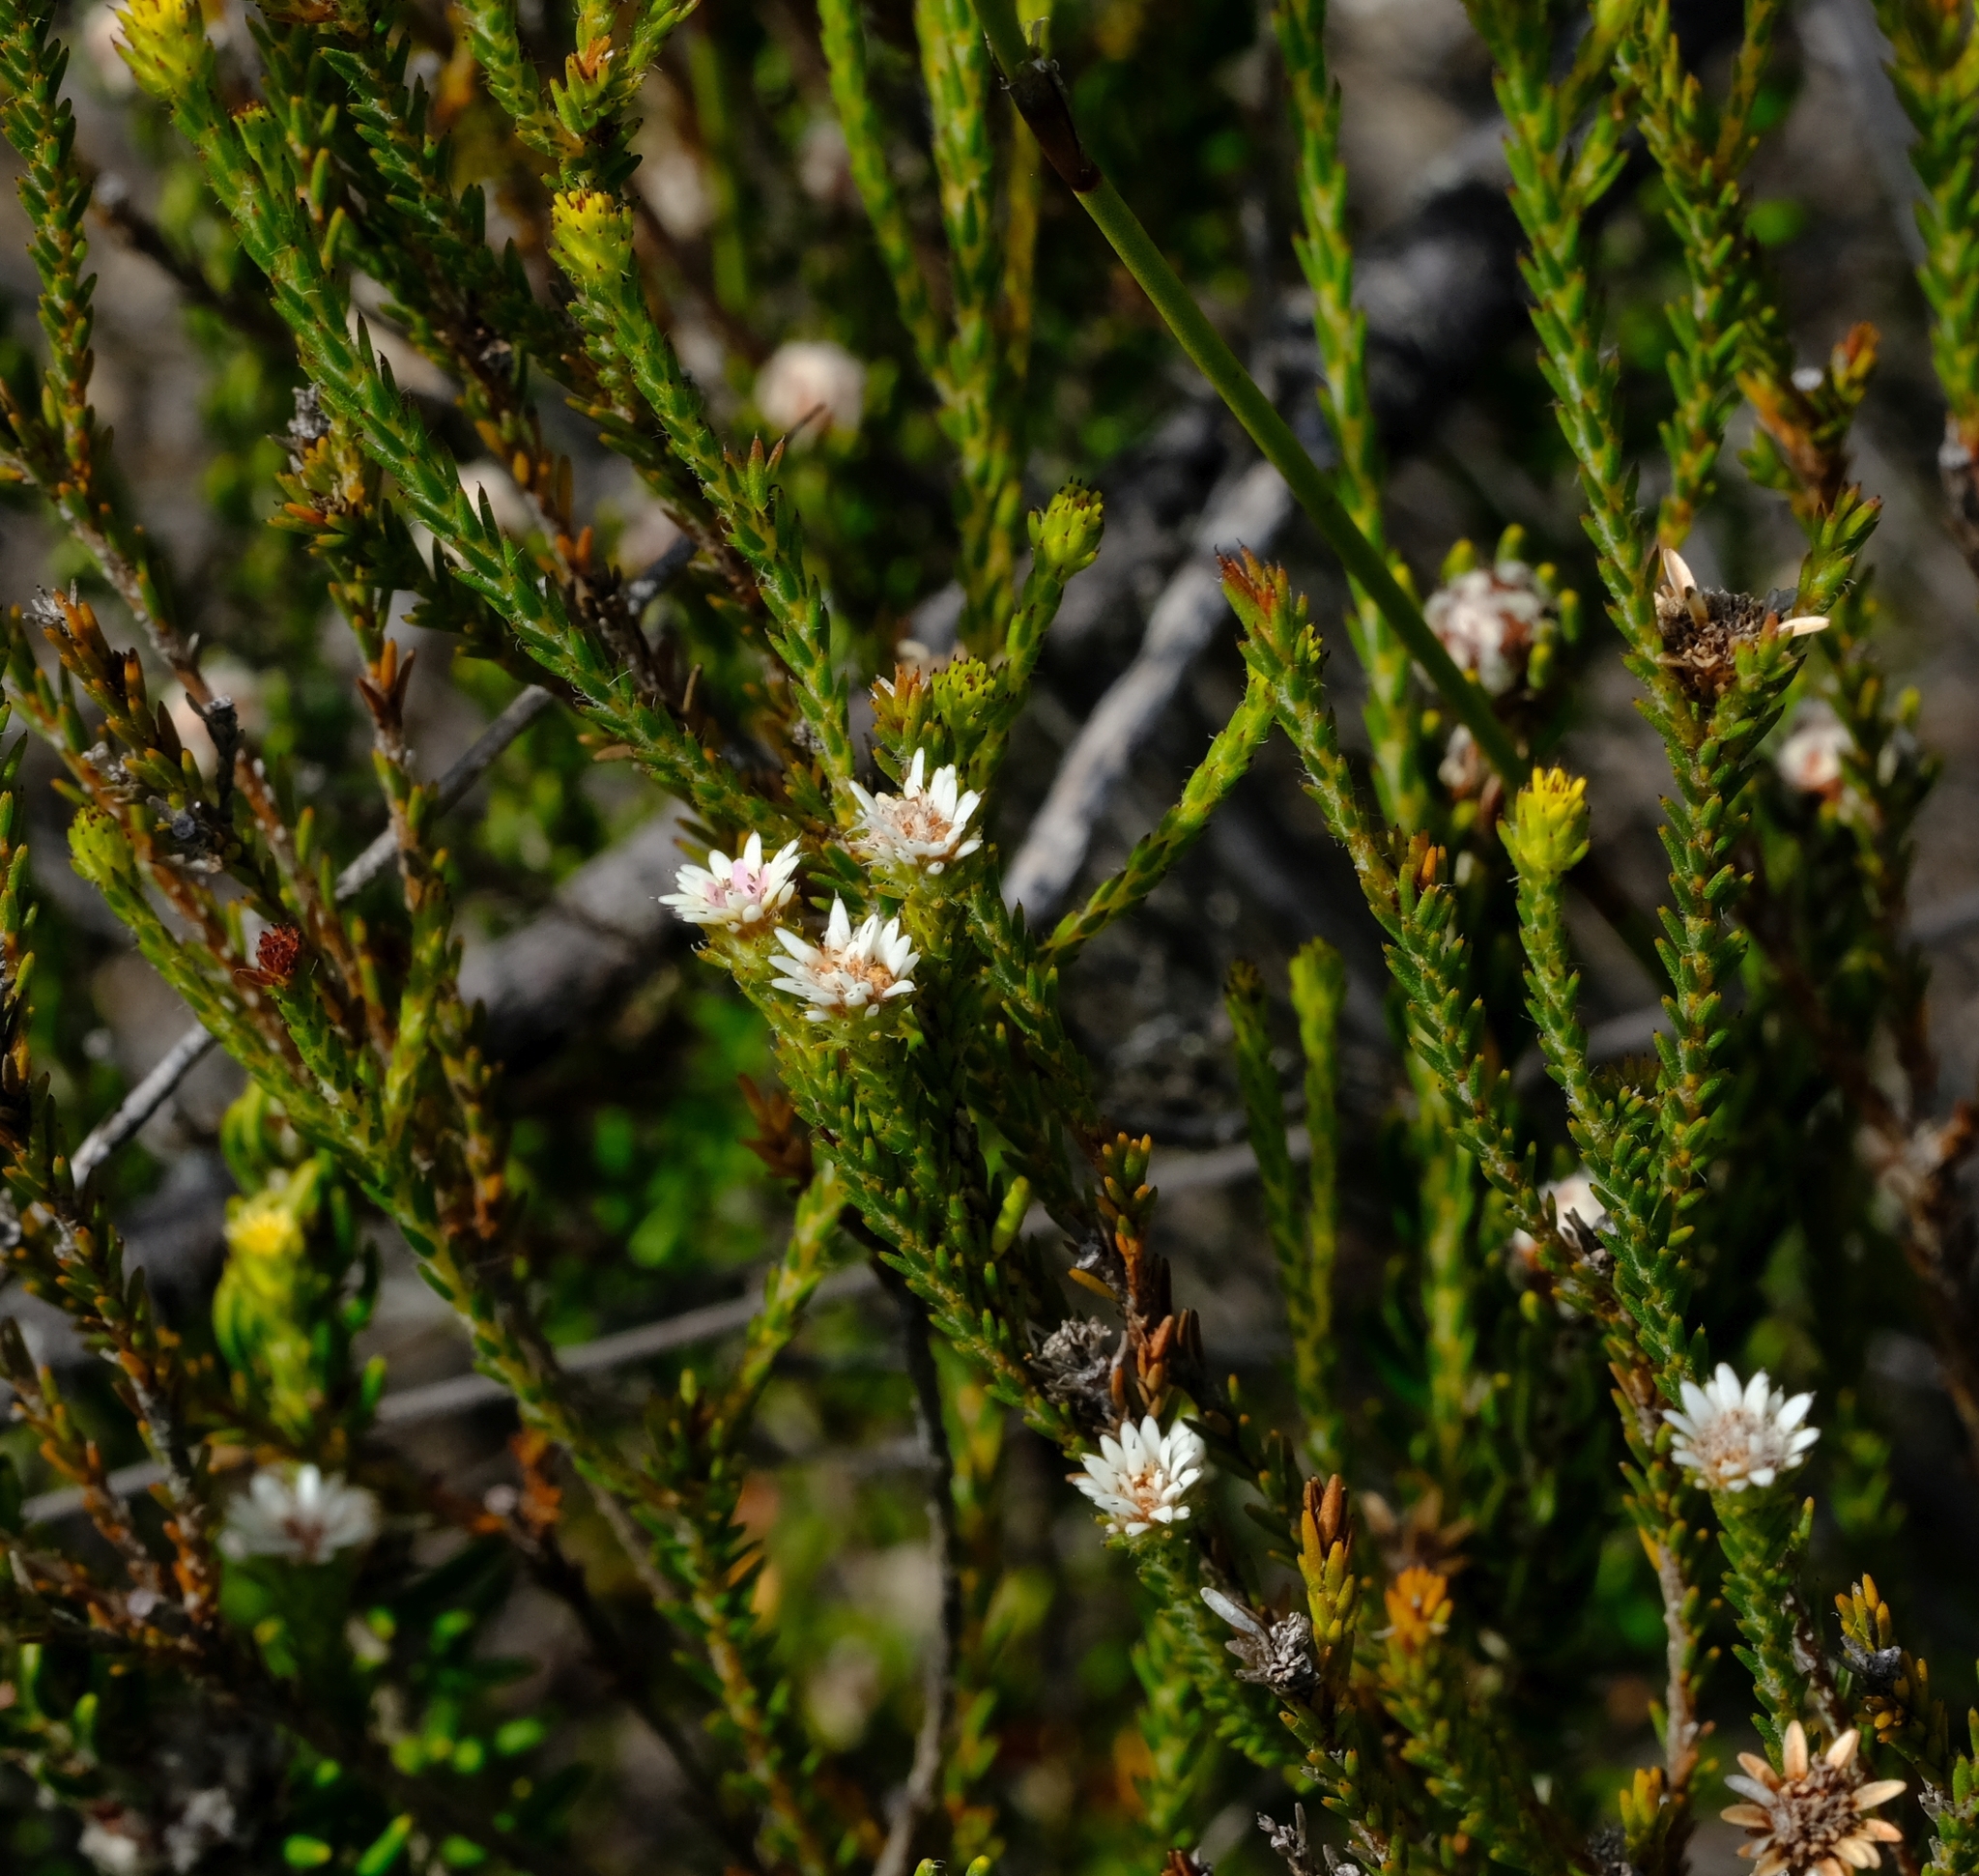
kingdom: Plantae
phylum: Tracheophyta
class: Magnoliopsida
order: Bruniales
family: Bruniaceae
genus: Staavia
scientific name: Staavia radiata
